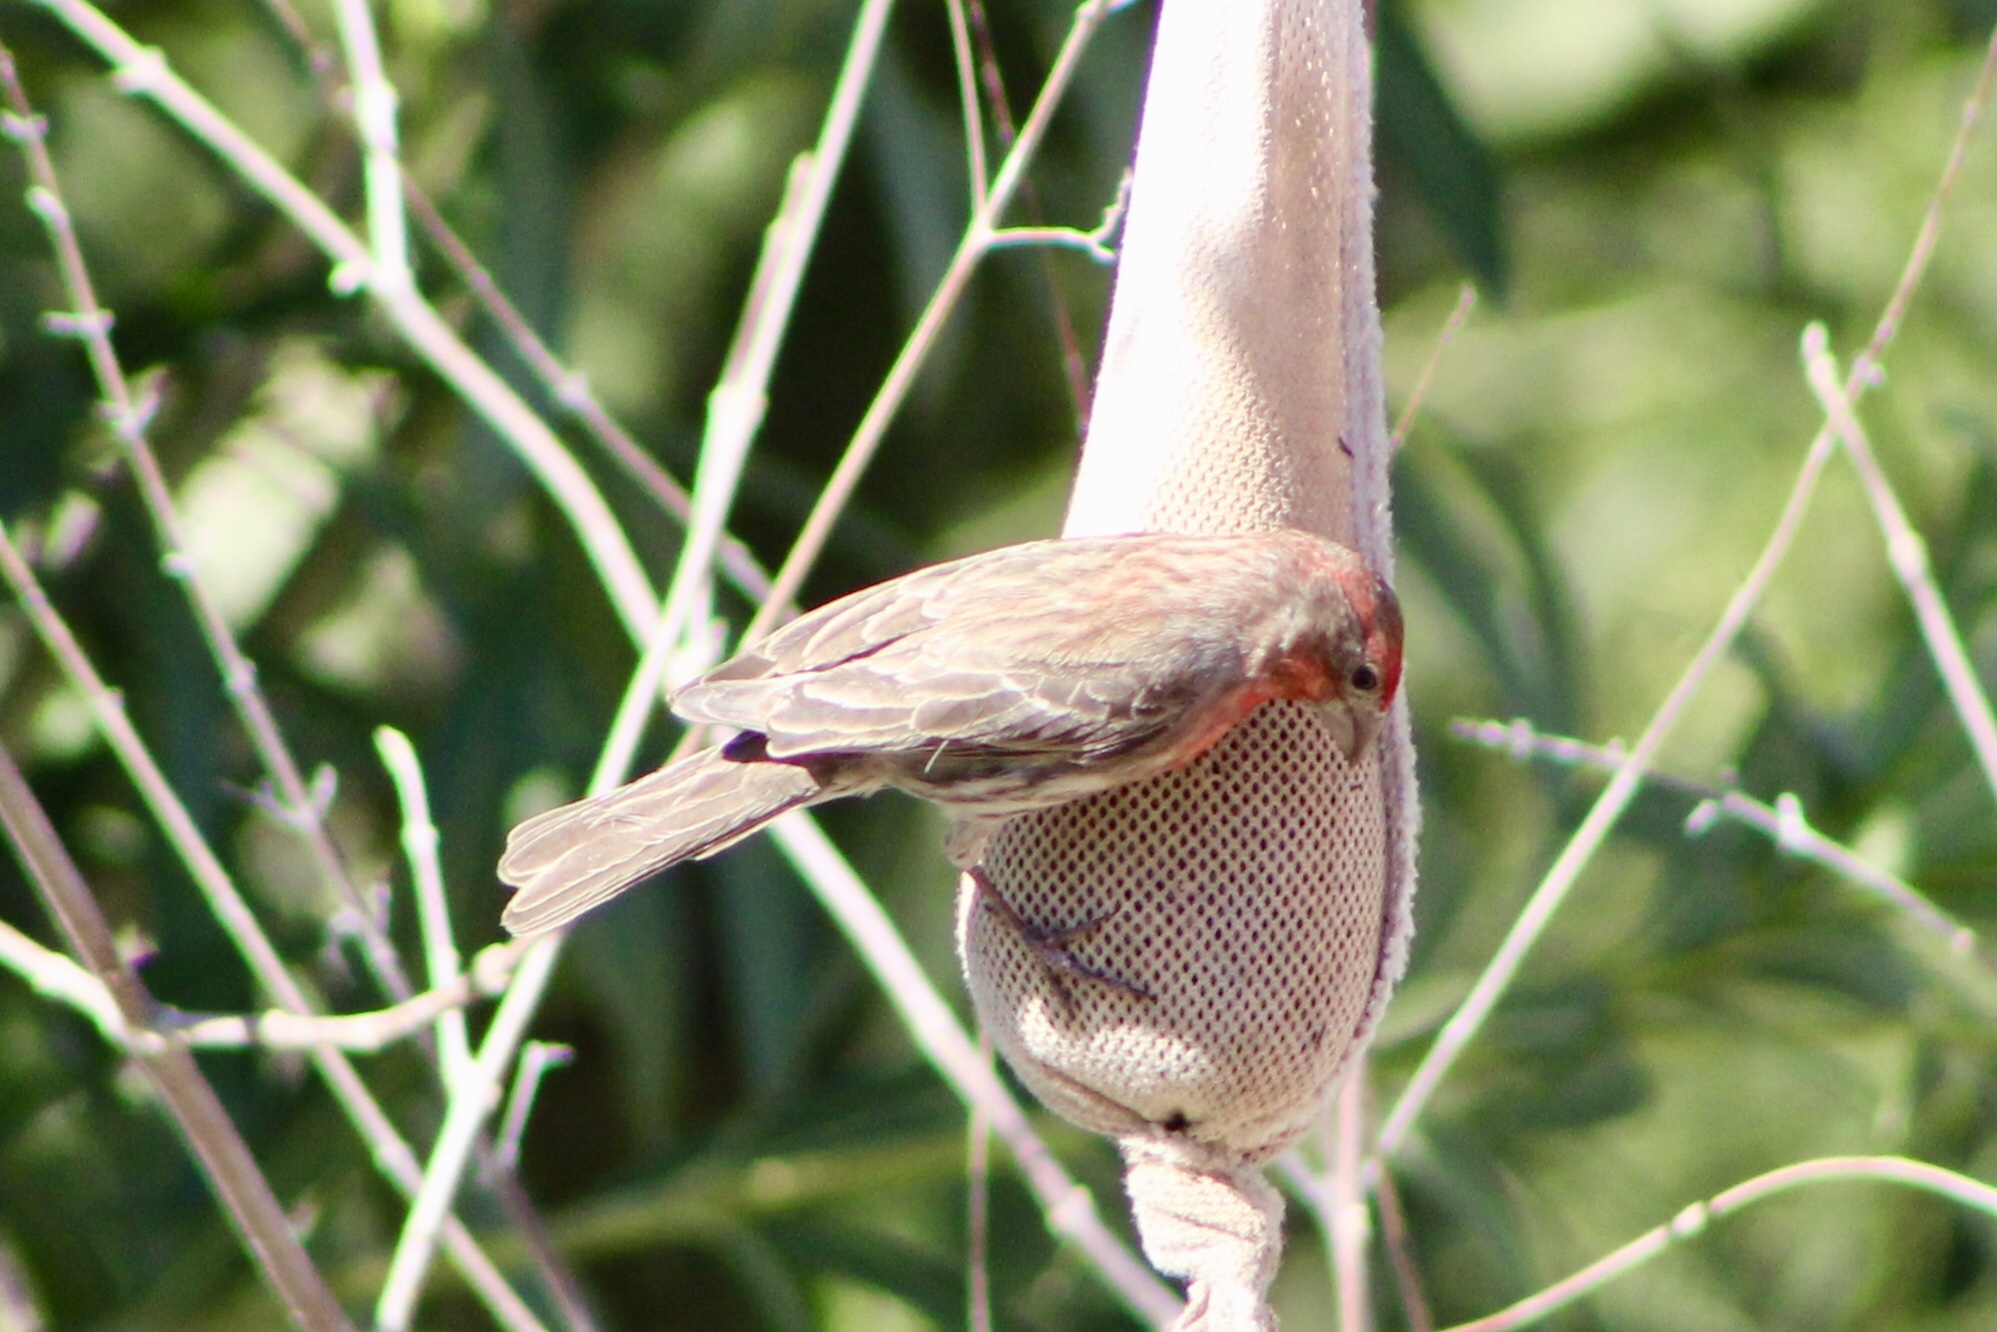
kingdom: Animalia
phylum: Chordata
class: Aves
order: Passeriformes
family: Fringillidae
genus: Haemorhous
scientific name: Haemorhous mexicanus
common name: House finch
